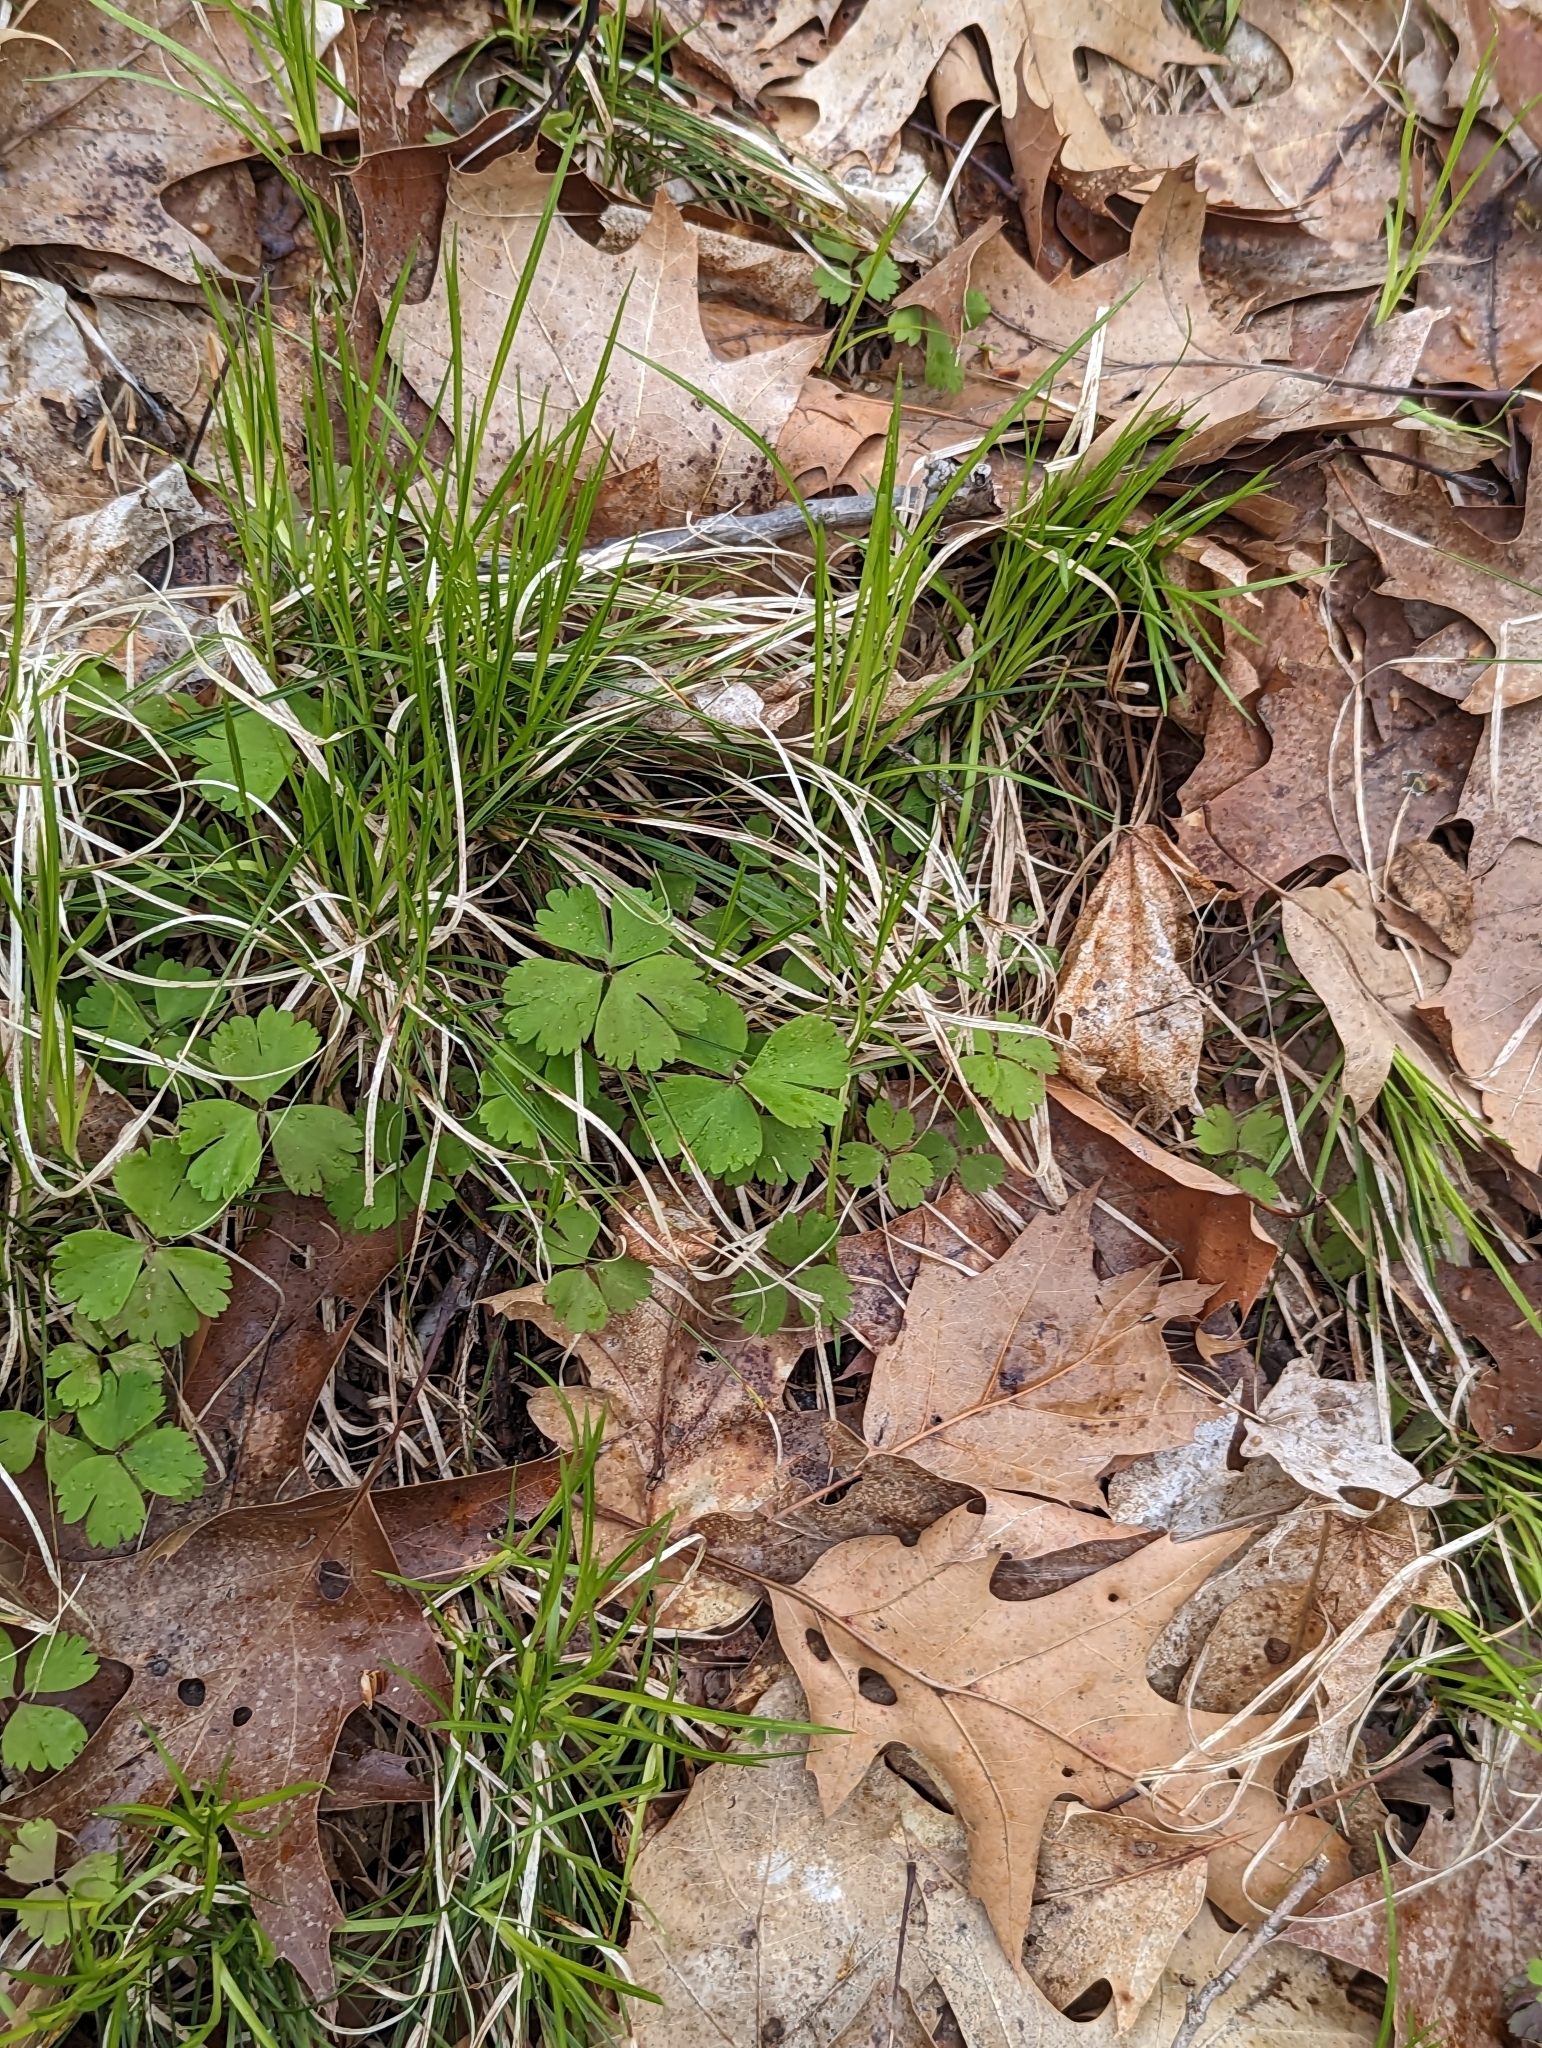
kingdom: Plantae
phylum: Tracheophyta
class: Magnoliopsida
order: Ranunculales
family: Ranunculaceae
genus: Anemone
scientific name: Anemone quinquefolia
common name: Wood anemone
